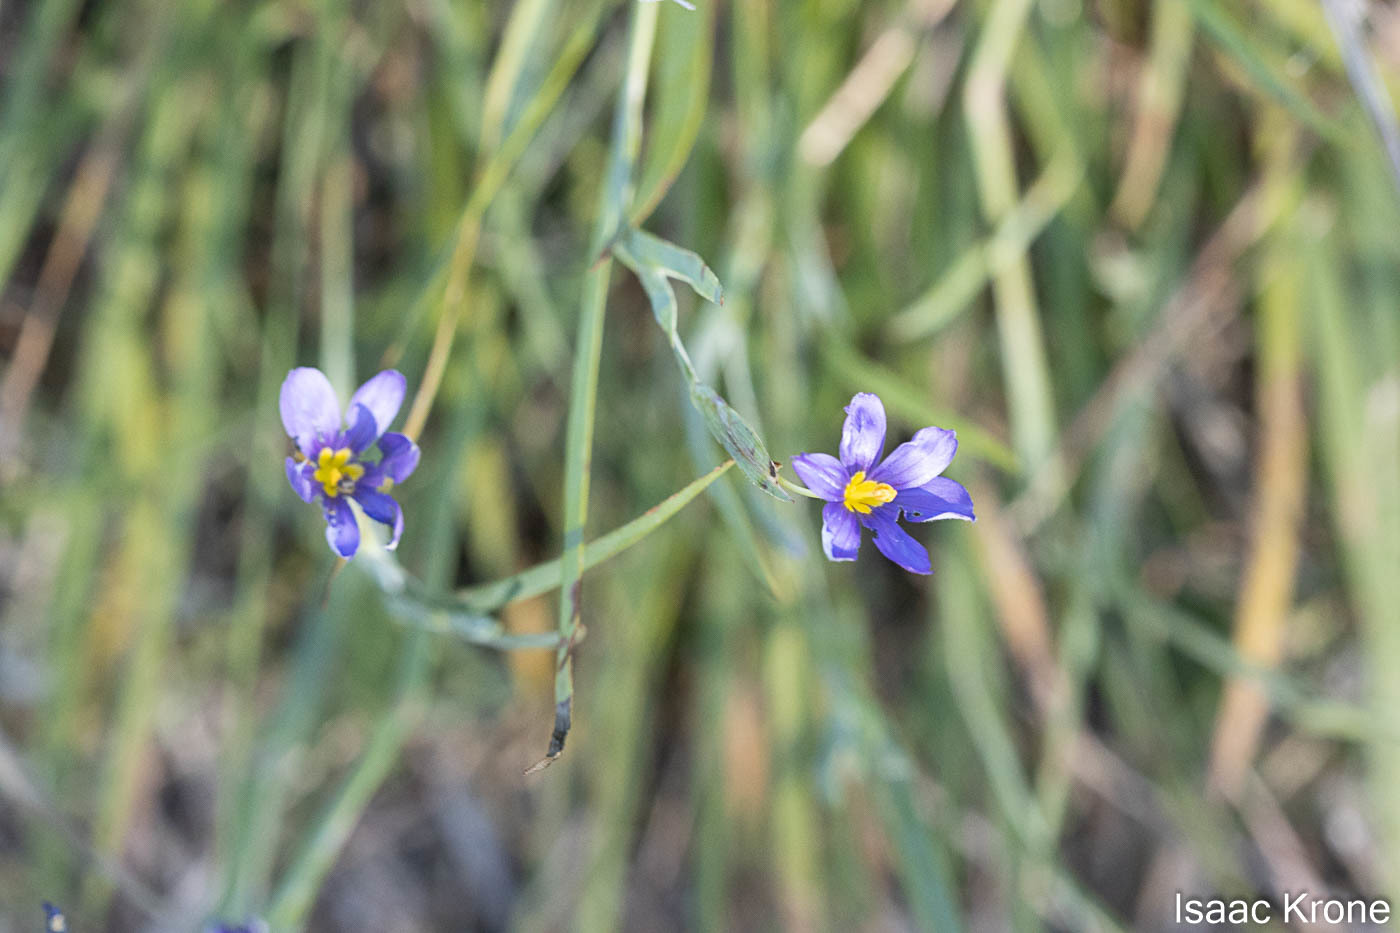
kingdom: Plantae
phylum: Tracheophyta
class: Liliopsida
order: Asparagales
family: Iridaceae
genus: Sisyrinchium
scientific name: Sisyrinchium bellum
